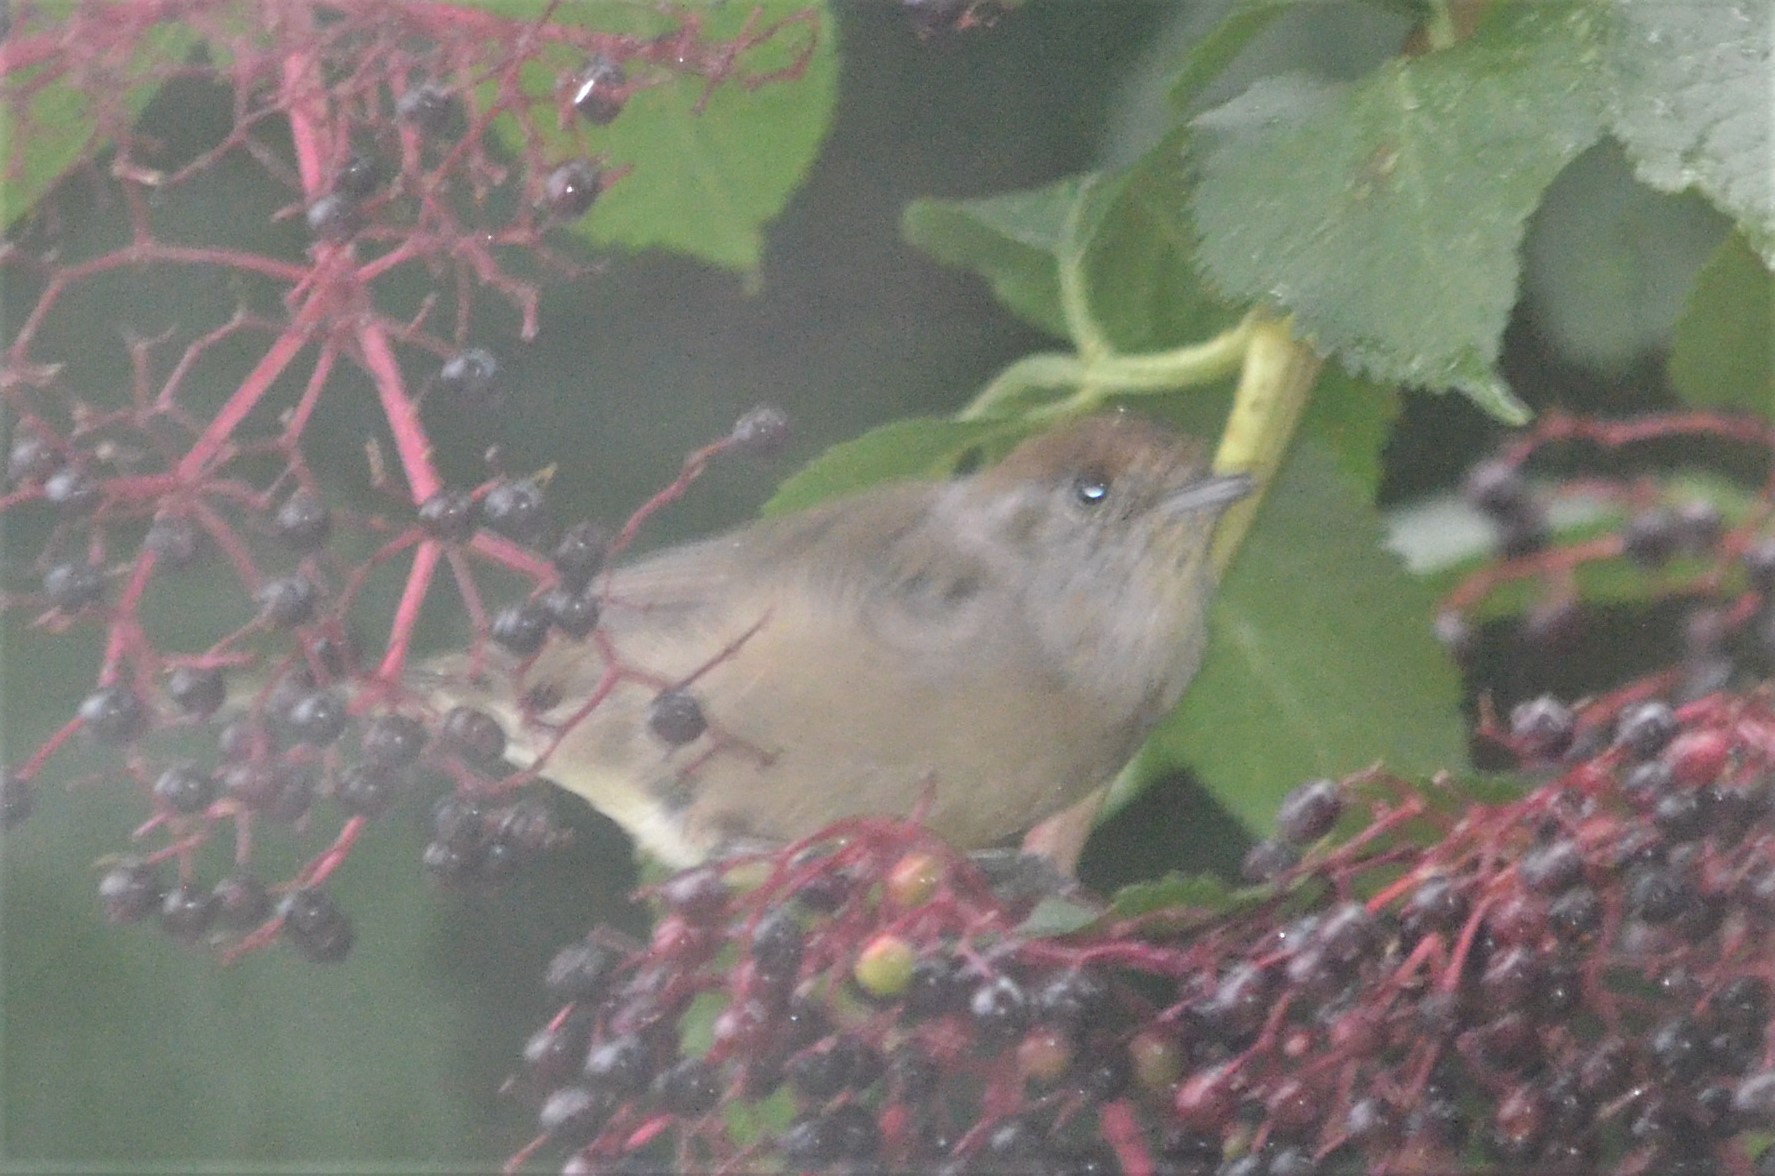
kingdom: Animalia
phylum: Chordata
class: Aves
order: Passeriformes
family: Sylviidae
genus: Sylvia
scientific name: Sylvia atricapilla
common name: Eurasian blackcap
